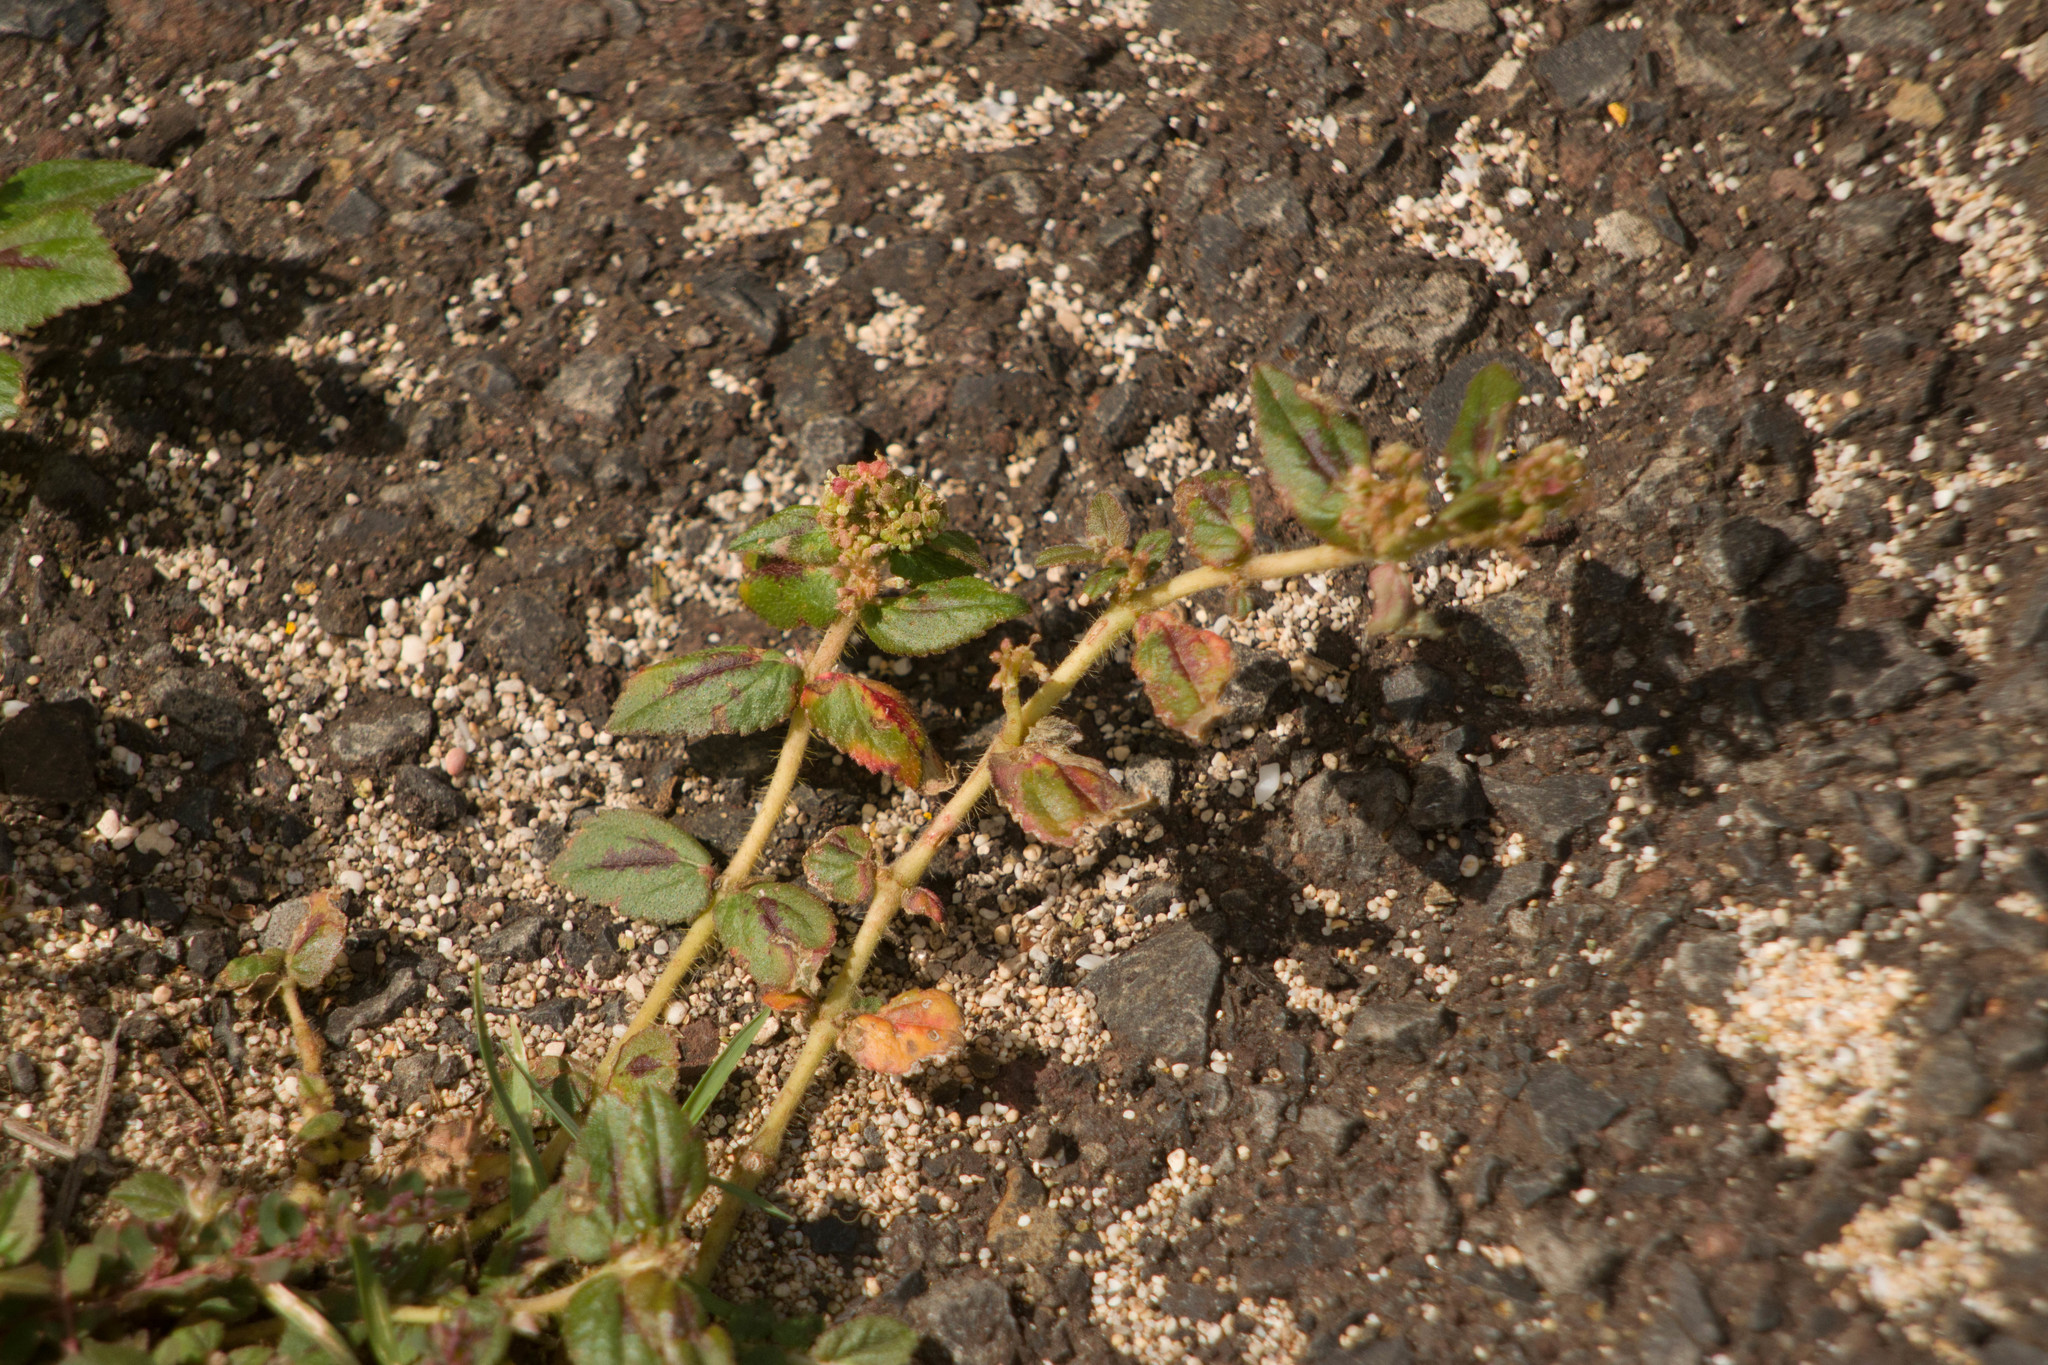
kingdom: Plantae
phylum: Tracheophyta
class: Magnoliopsida
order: Malpighiales
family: Euphorbiaceae
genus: Euphorbia
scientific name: Euphorbia hirta
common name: Pillpod sandmat
